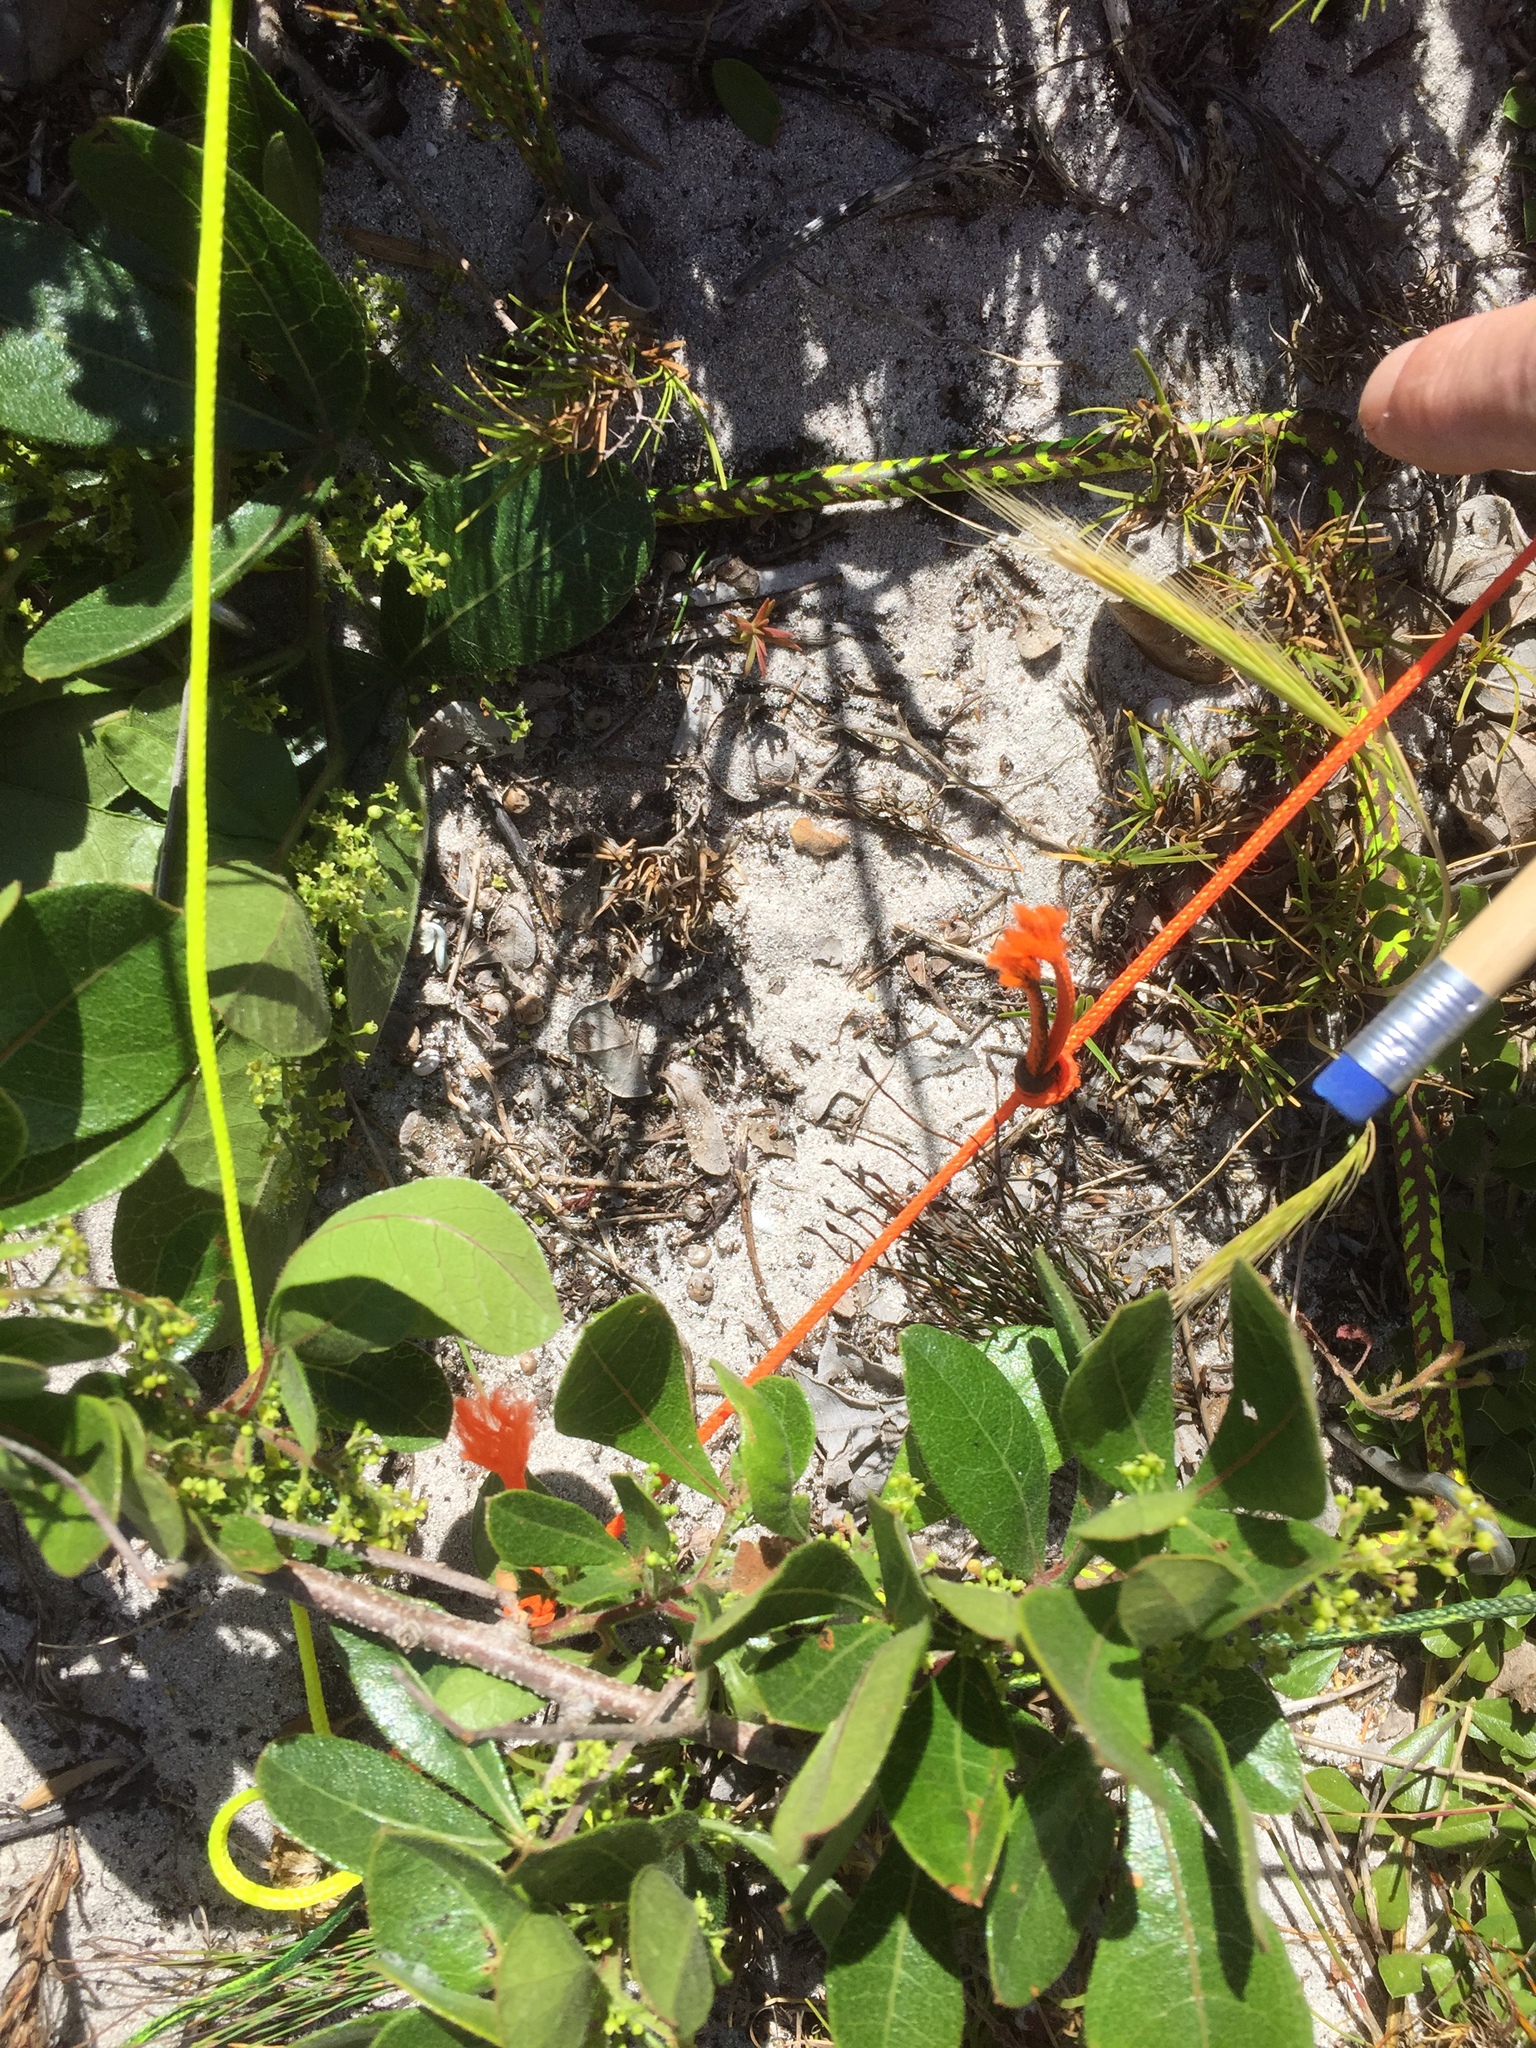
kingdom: Plantae
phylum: Tracheophyta
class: Magnoliopsida
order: Sapindales
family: Anacardiaceae
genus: Searsia
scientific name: Searsia laevigata
